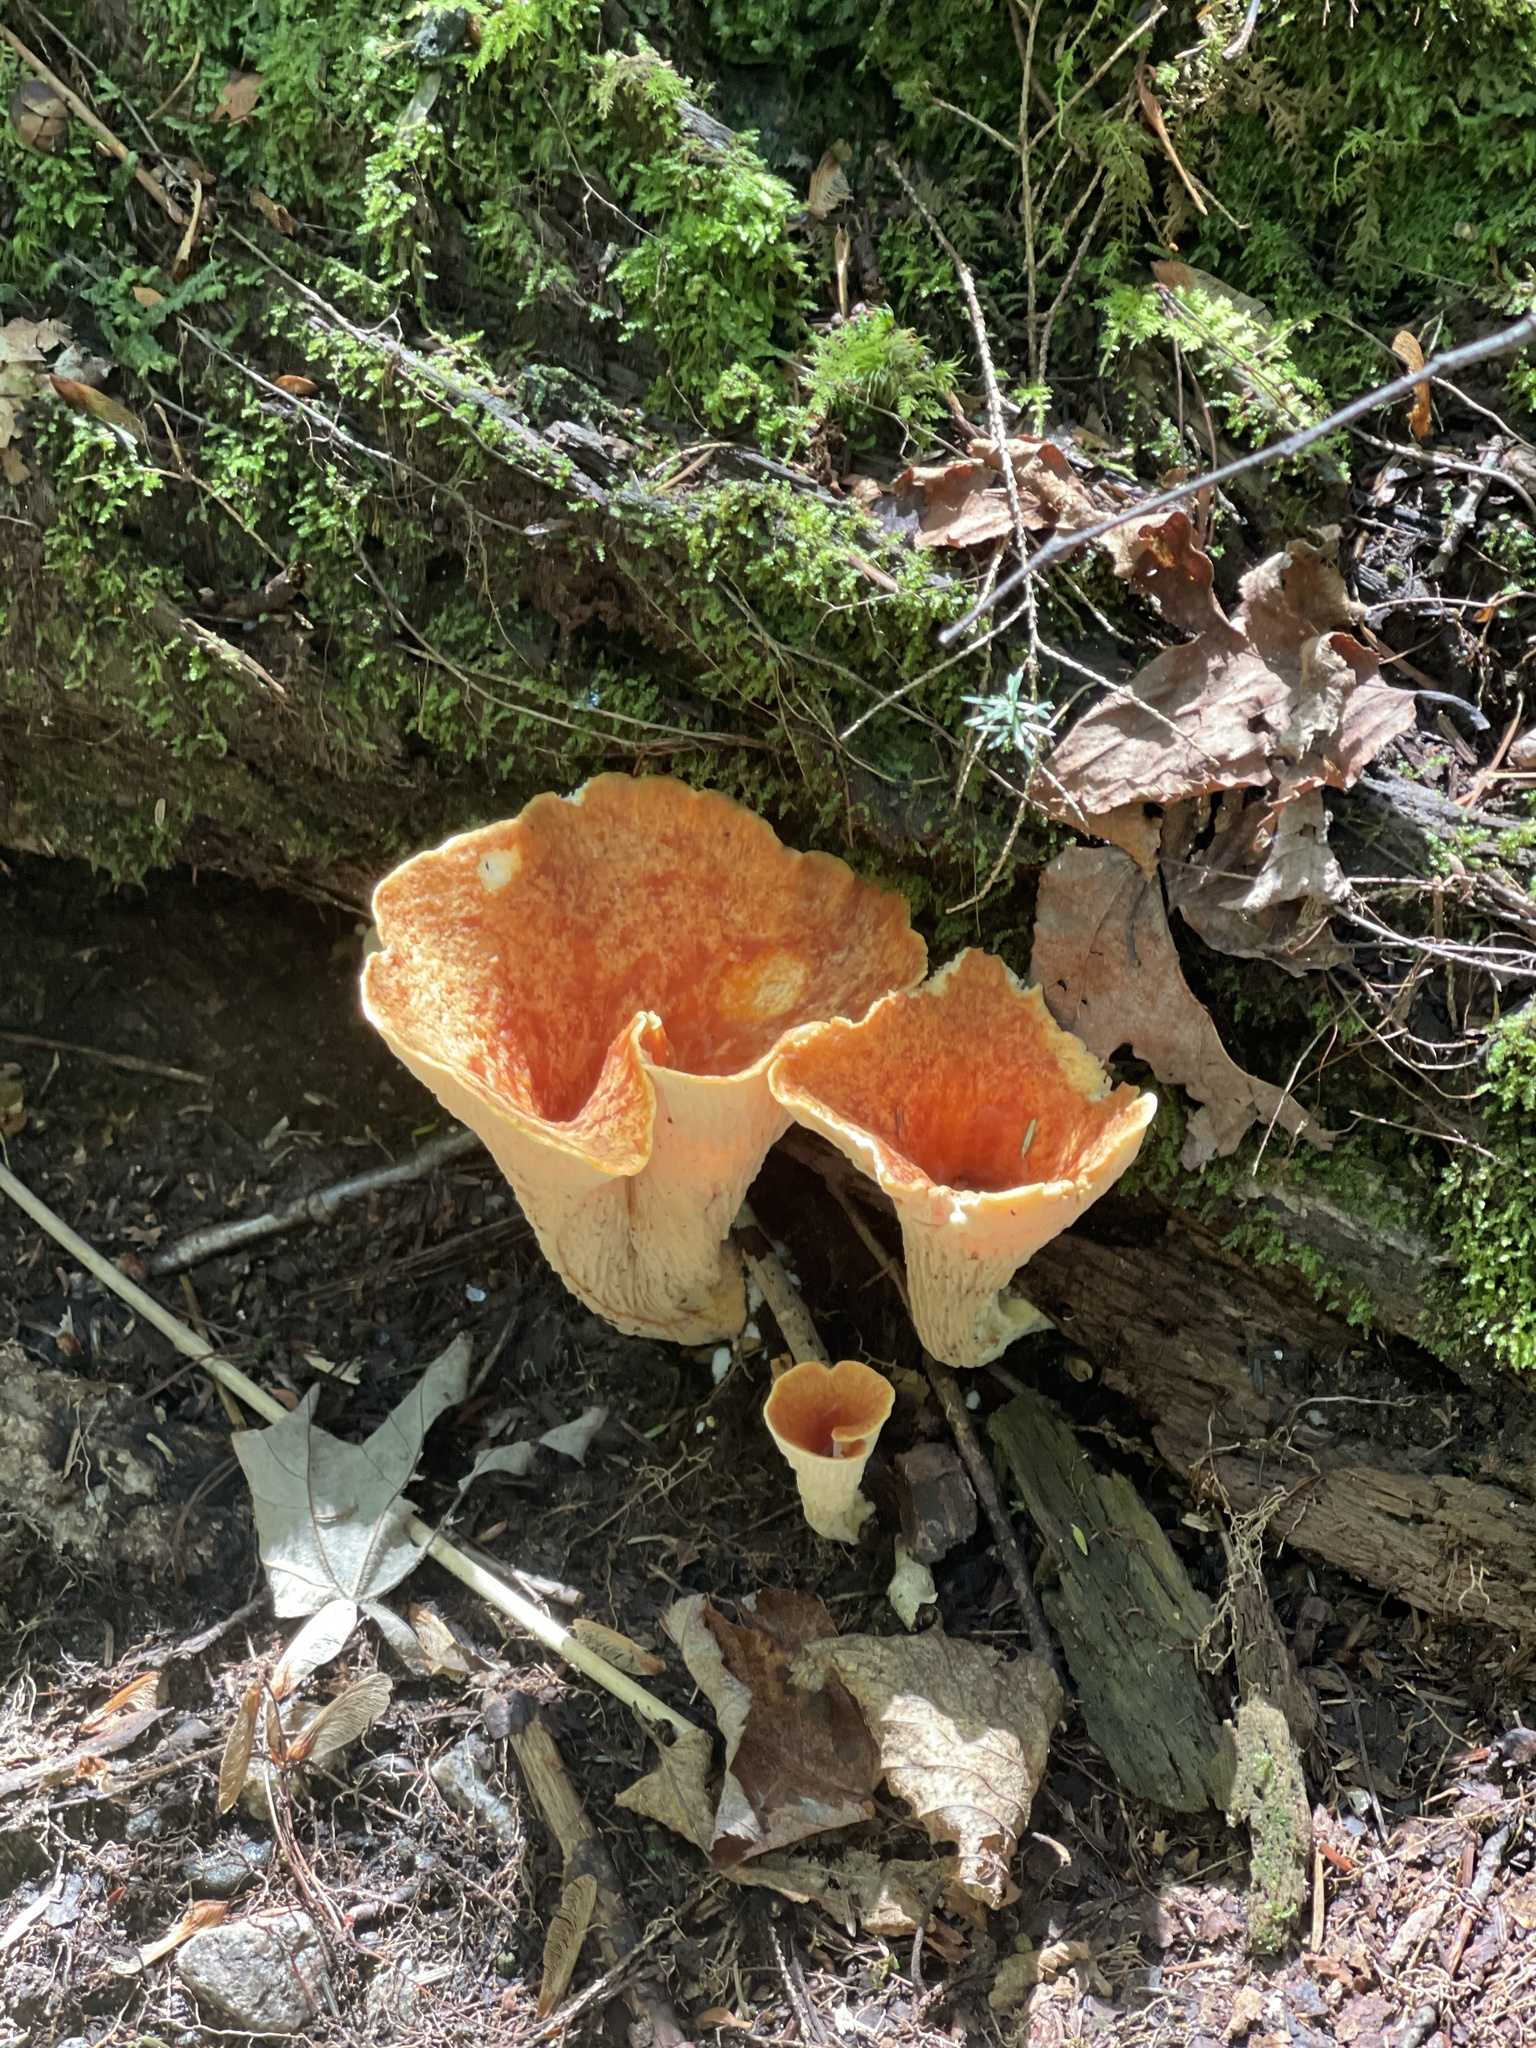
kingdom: Fungi
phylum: Basidiomycota
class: Agaricomycetes
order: Gomphales
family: Gomphaceae
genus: Turbinellus
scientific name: Turbinellus floccosus
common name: Scaly chanterelle
